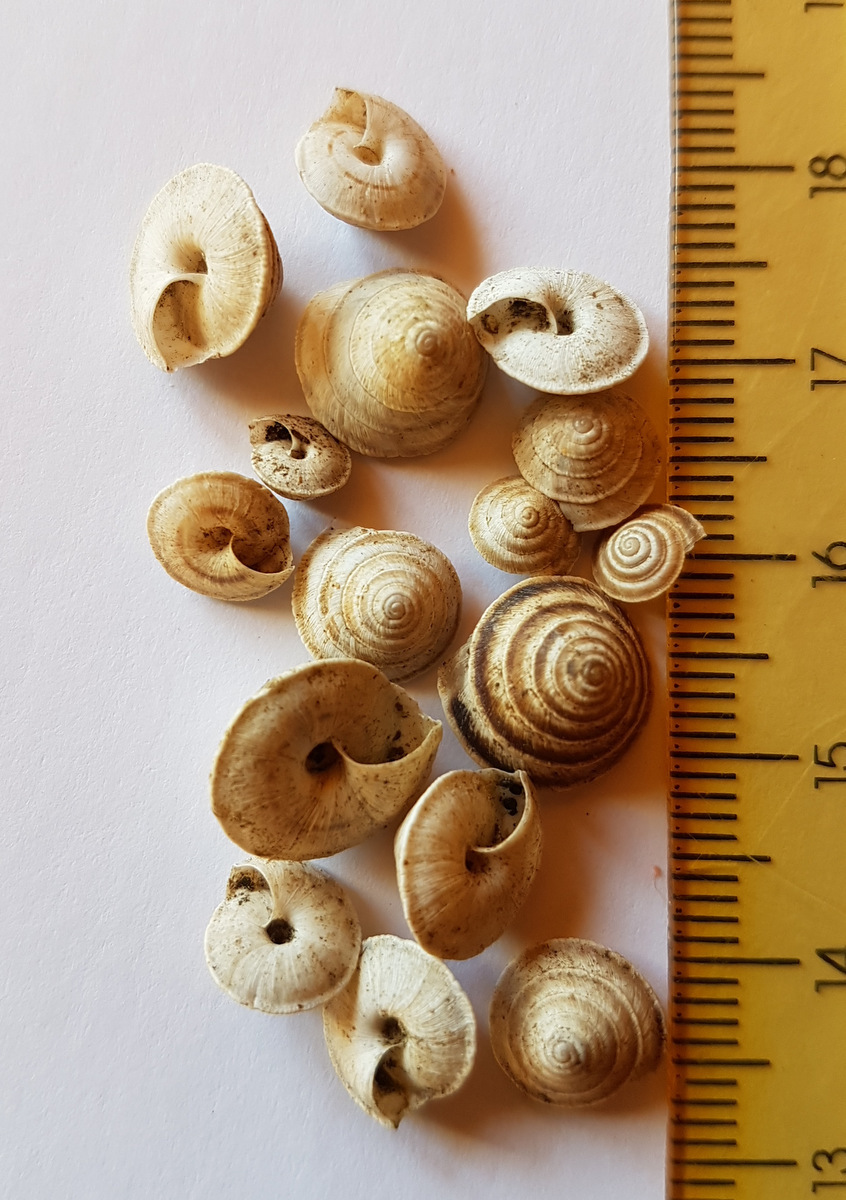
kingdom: Animalia
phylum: Mollusca
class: Gastropoda
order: Stylommatophora
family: Geomitridae
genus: Trochoidea
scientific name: Trochoidea elegans
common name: Elegant helicellid
